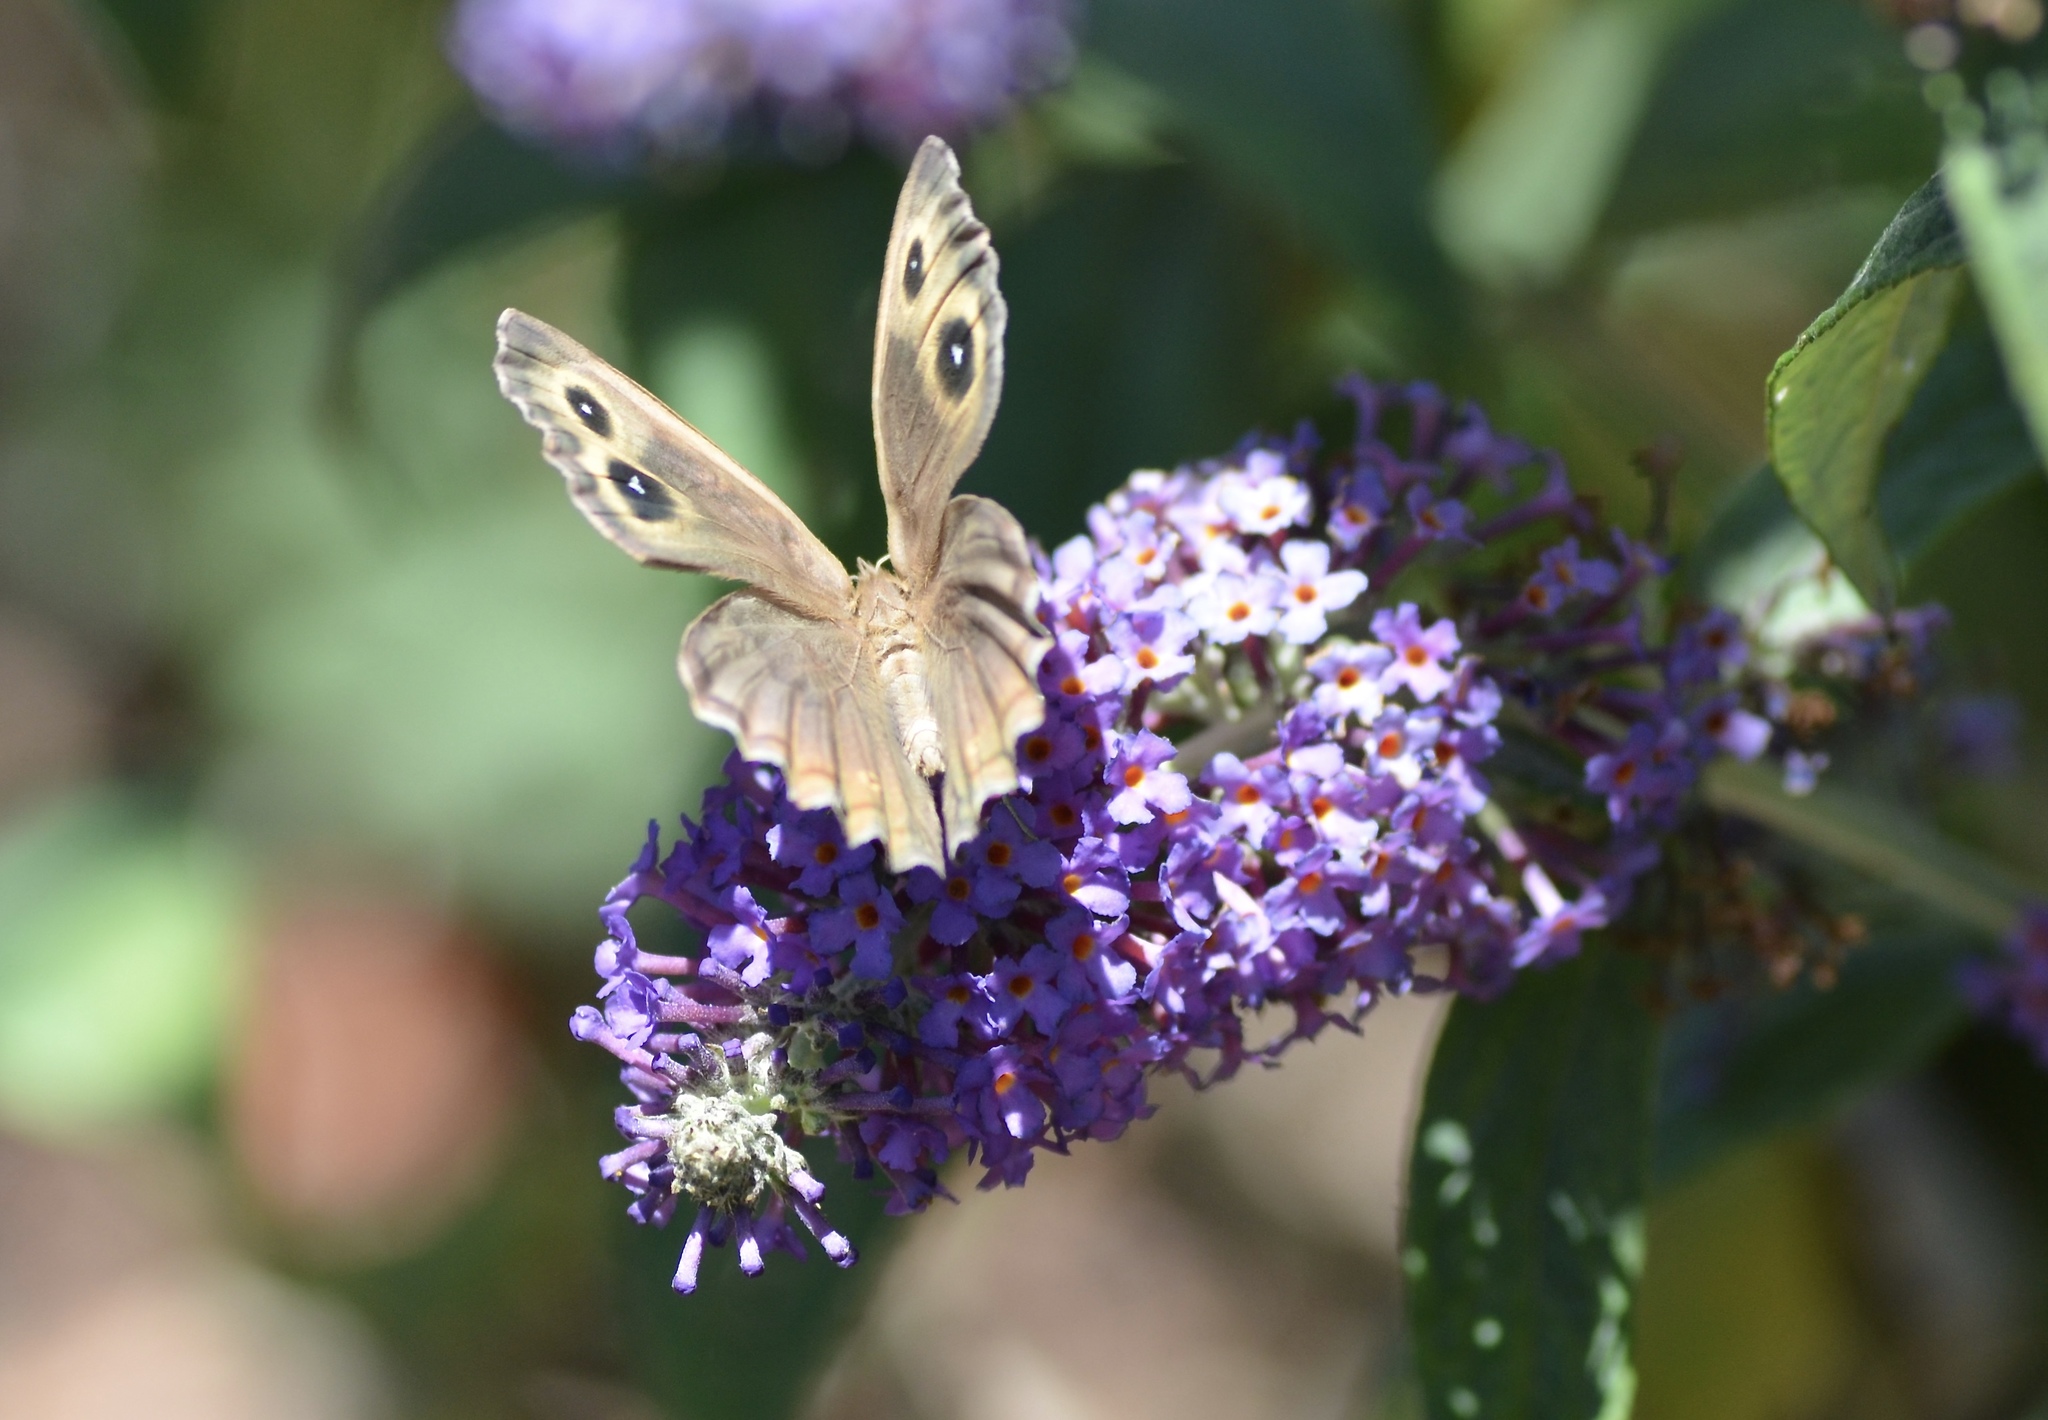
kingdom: Animalia
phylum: Arthropoda
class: Insecta
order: Lepidoptera
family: Nymphalidae
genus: Cercyonis
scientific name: Cercyonis pegala
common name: Common wood-nymph
